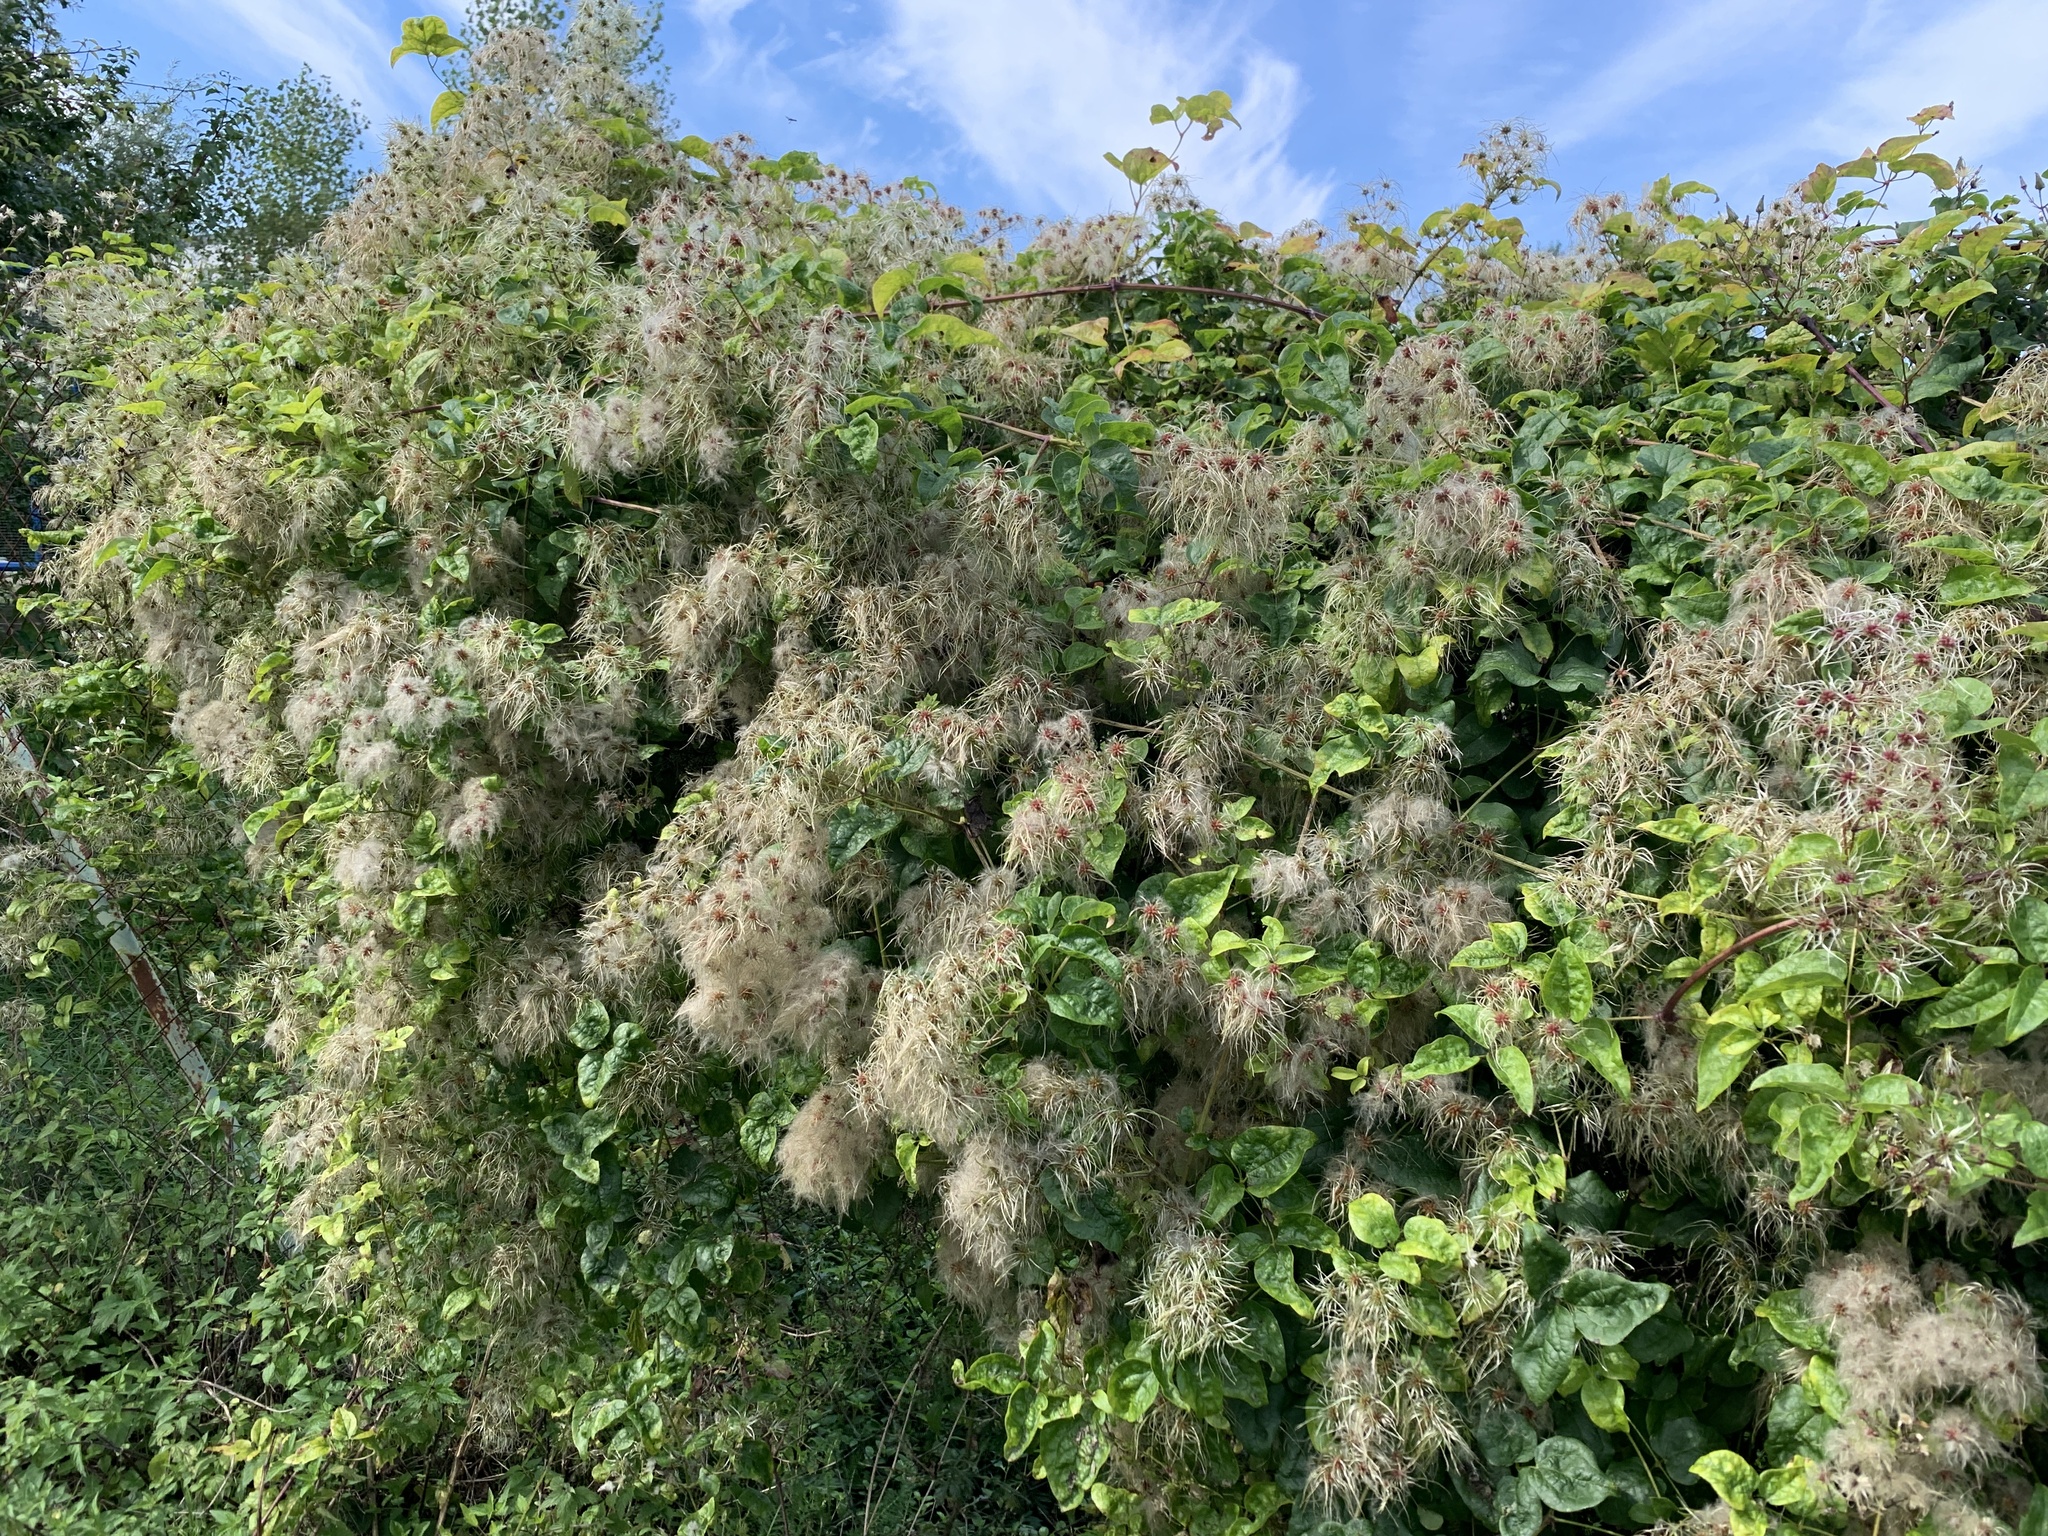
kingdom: Plantae
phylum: Tracheophyta
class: Magnoliopsida
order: Ranunculales
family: Ranunculaceae
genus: Clematis
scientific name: Clematis vitalba
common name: Evergreen clematis
